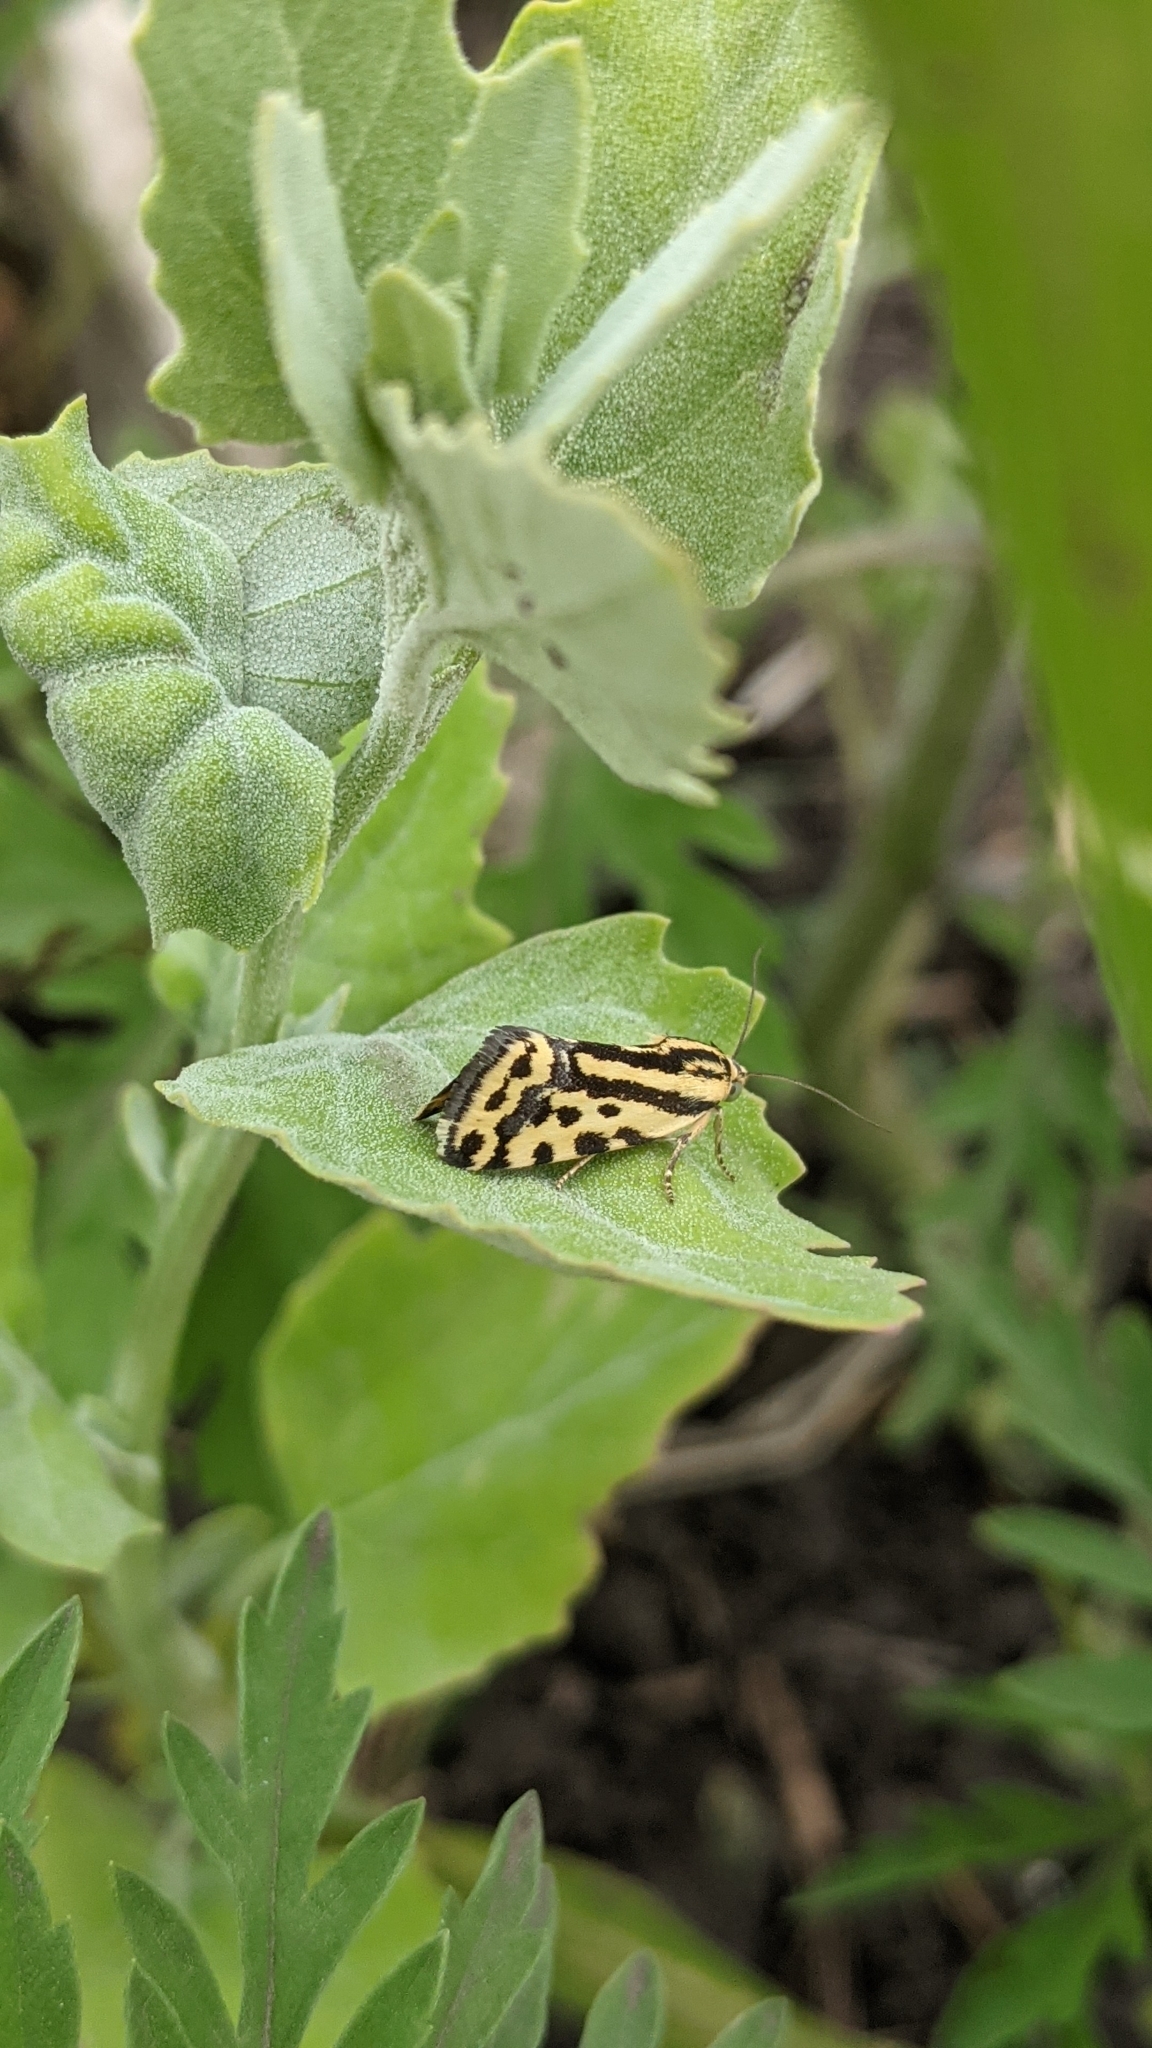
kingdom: Animalia
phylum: Arthropoda
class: Insecta
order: Lepidoptera
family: Noctuidae
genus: Acontia
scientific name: Acontia trabealis
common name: Spotted sulphur
